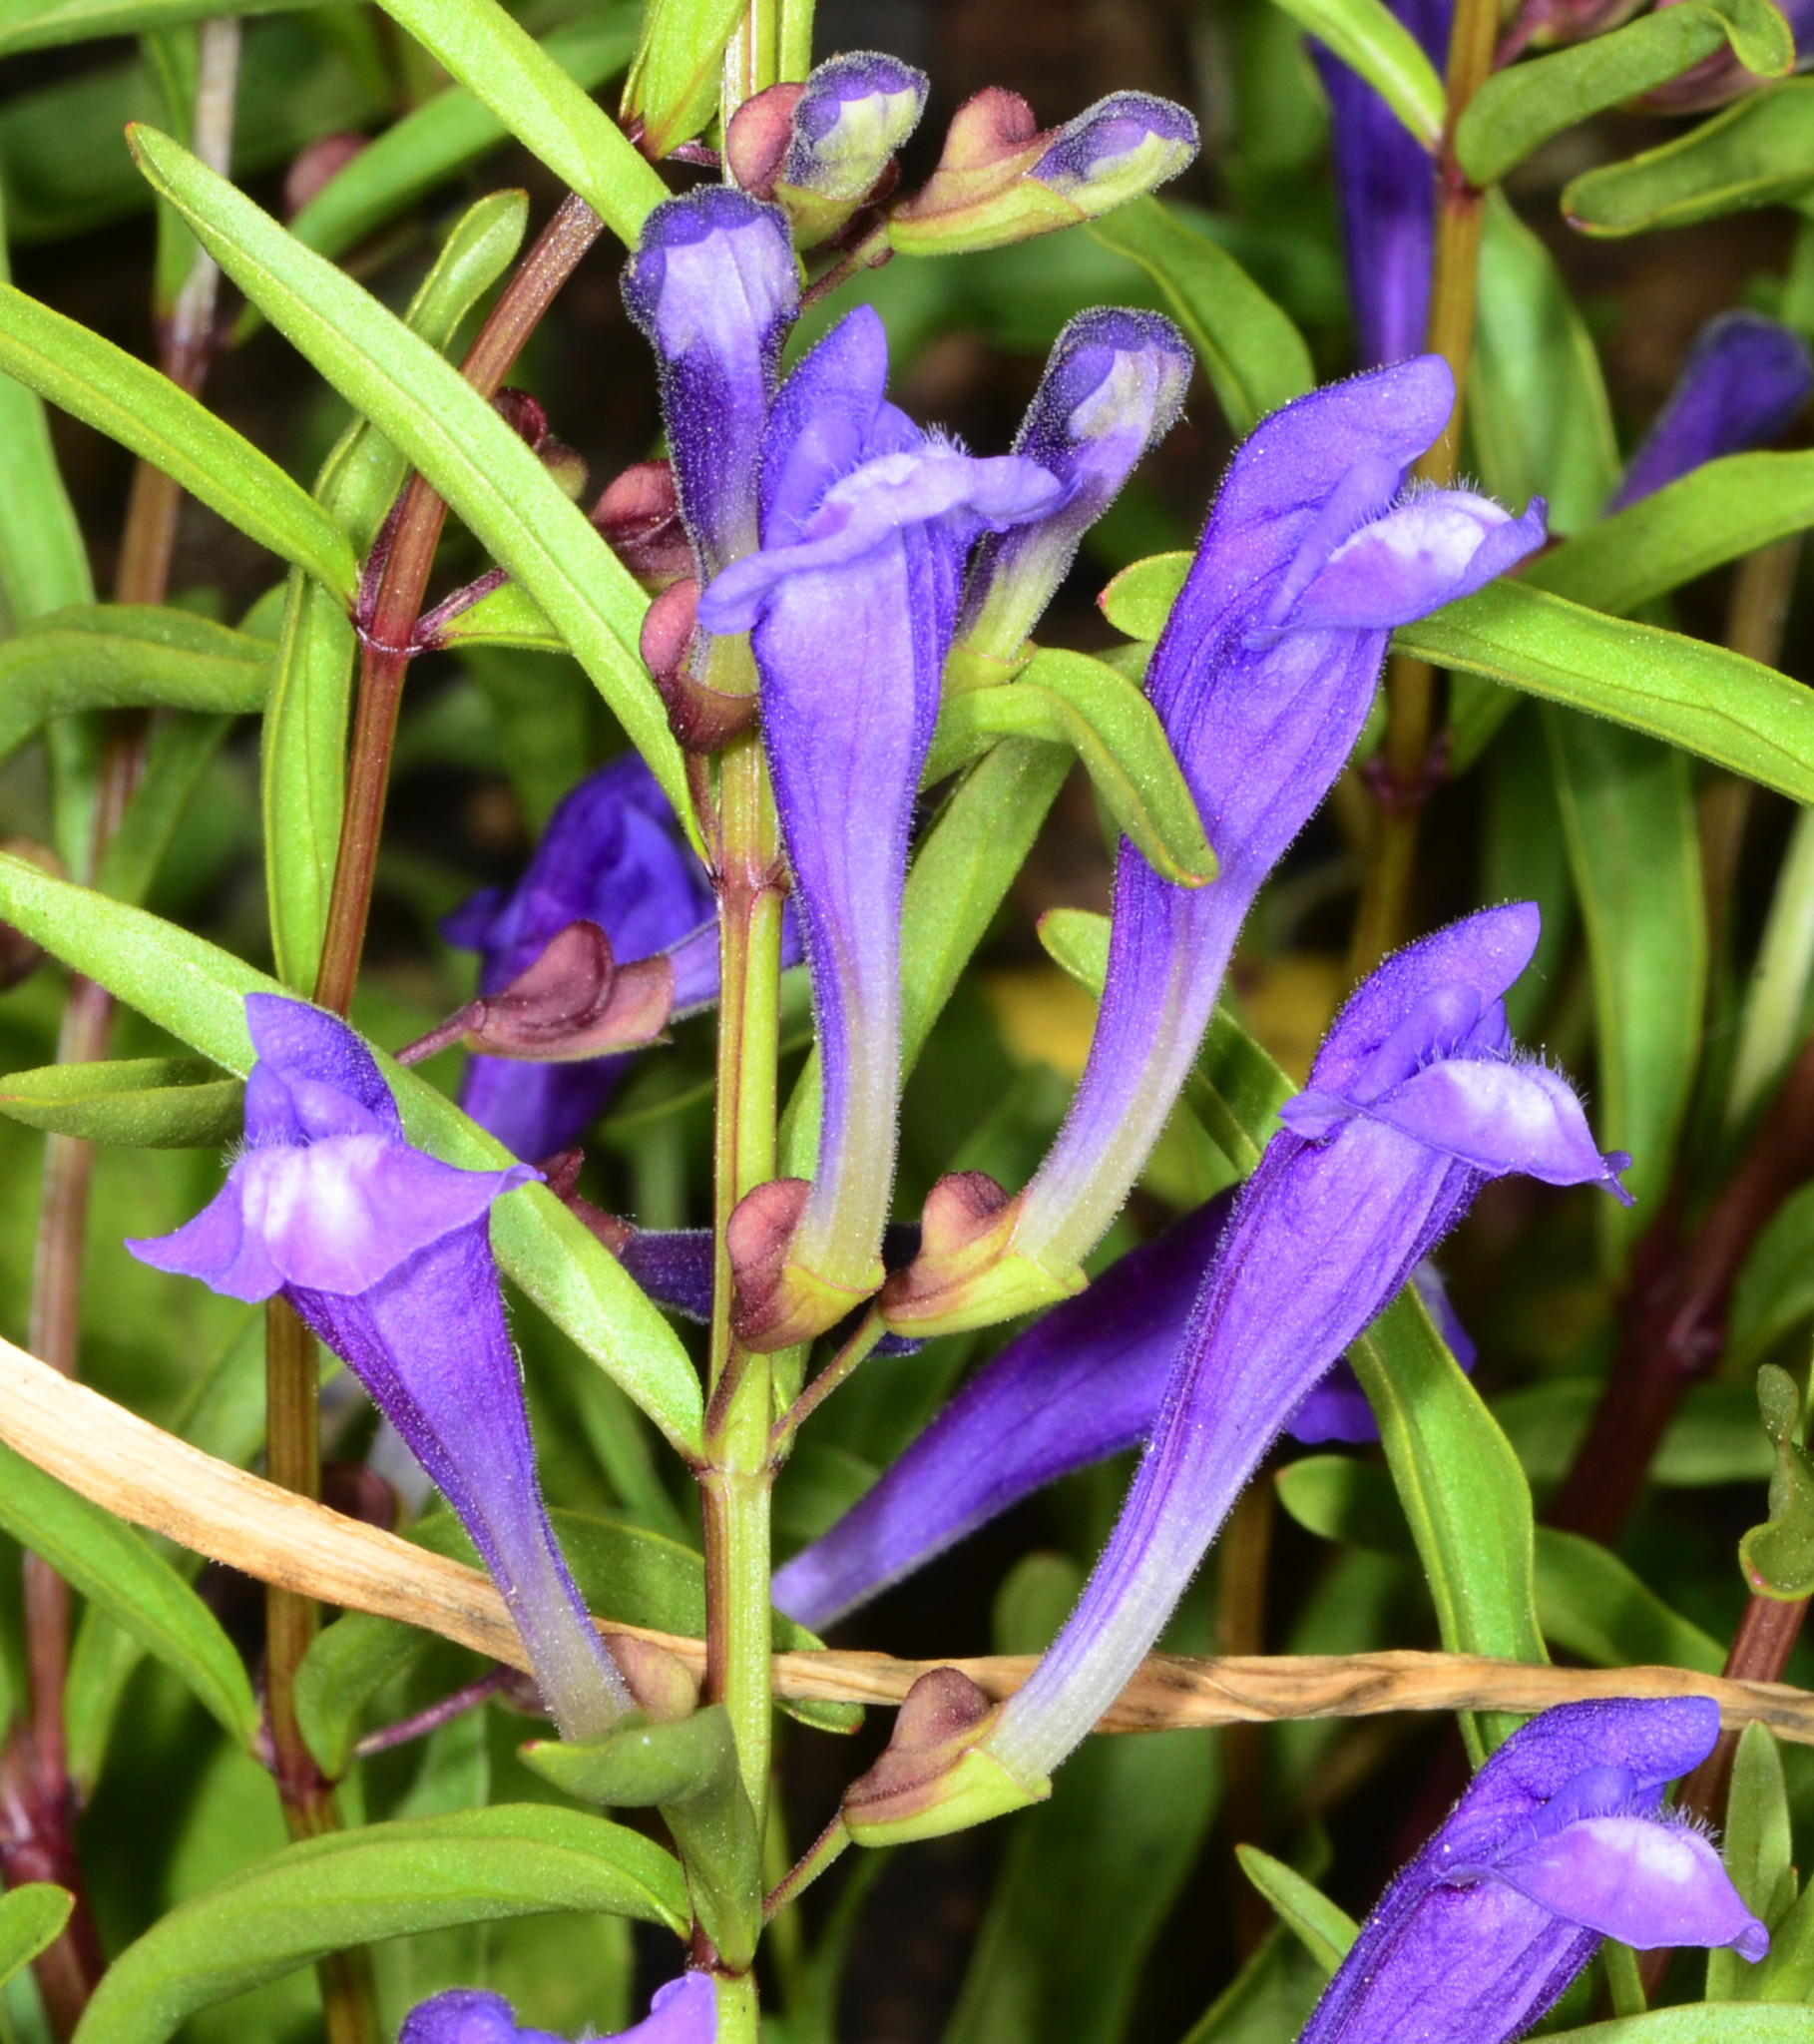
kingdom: Plantae
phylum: Tracheophyta
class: Magnoliopsida
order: Lamiales
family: Lamiaceae
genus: Scutellaria
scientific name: Scutellaria siphocampyloides
